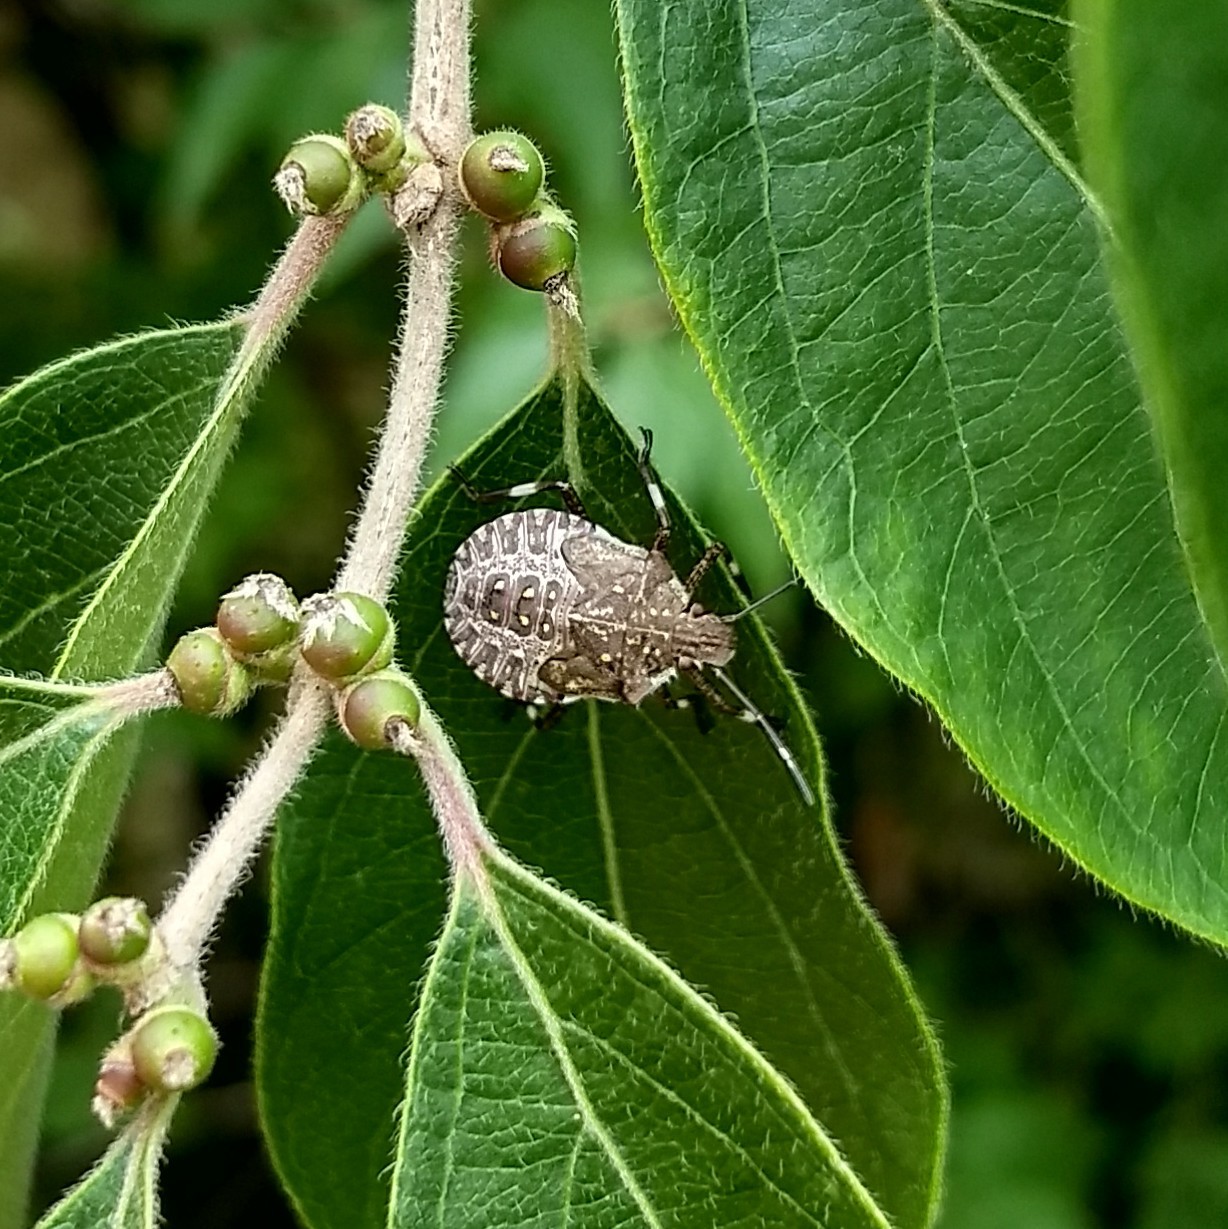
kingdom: Animalia
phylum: Arthropoda
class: Insecta
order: Hemiptera
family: Pentatomidae
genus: Halyomorpha
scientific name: Halyomorpha halys
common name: Brown marmorated stink bug
